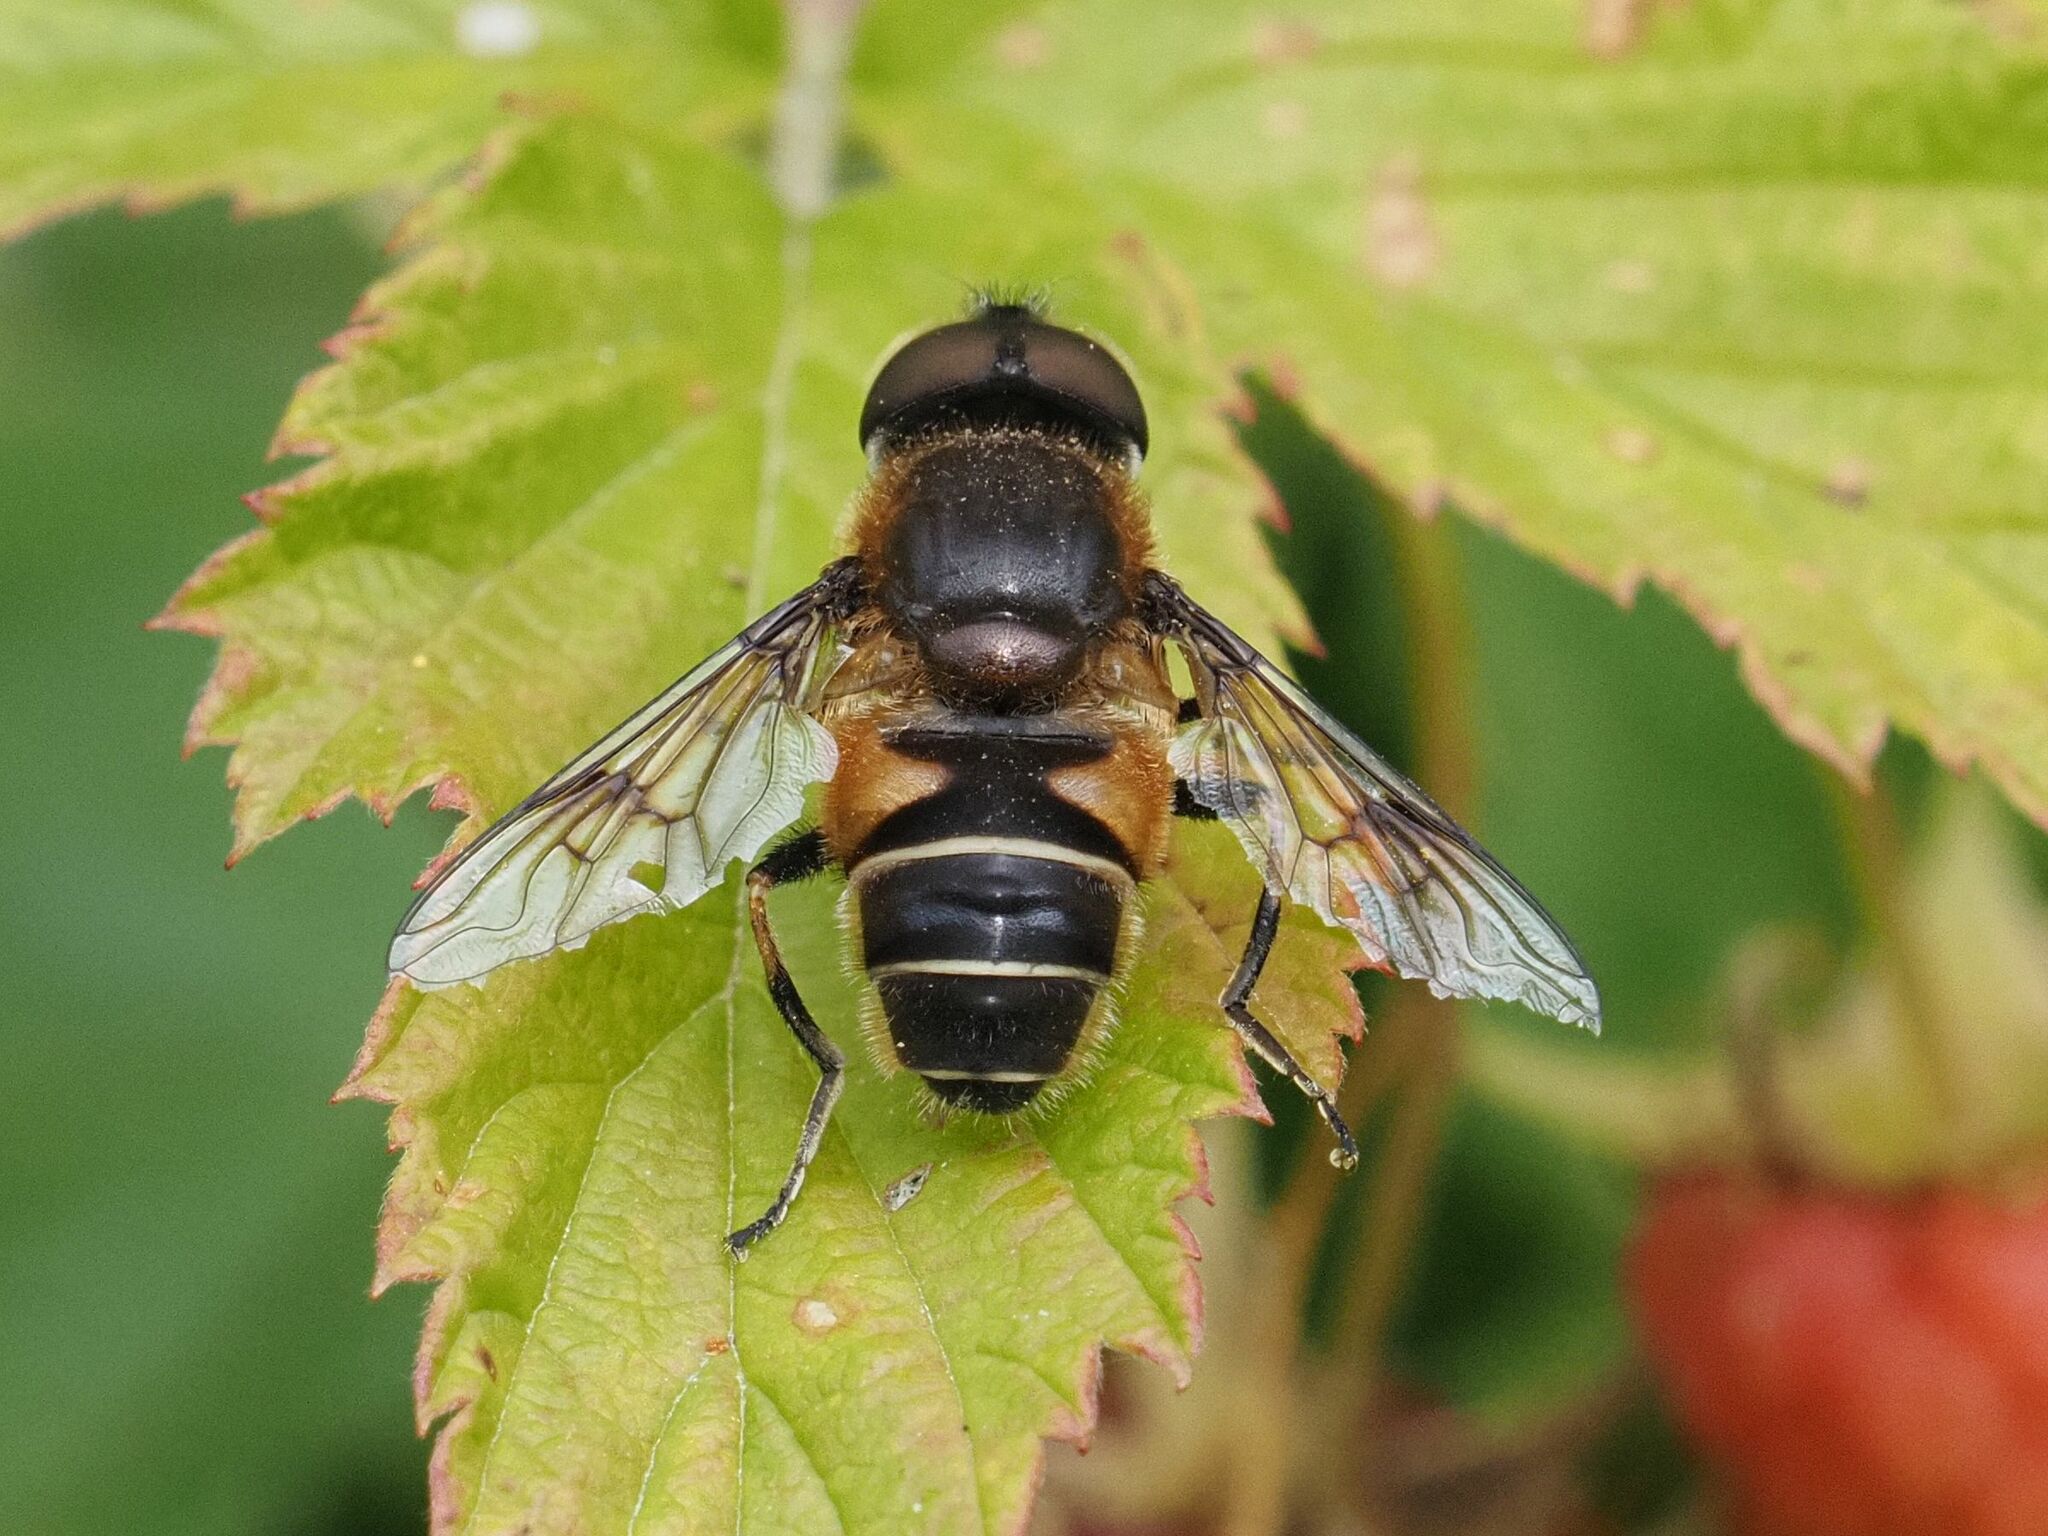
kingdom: Animalia
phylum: Arthropoda
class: Insecta
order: Diptera
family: Syrphidae
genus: Eristalis
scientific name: Eristalis rupium
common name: Hover fly
